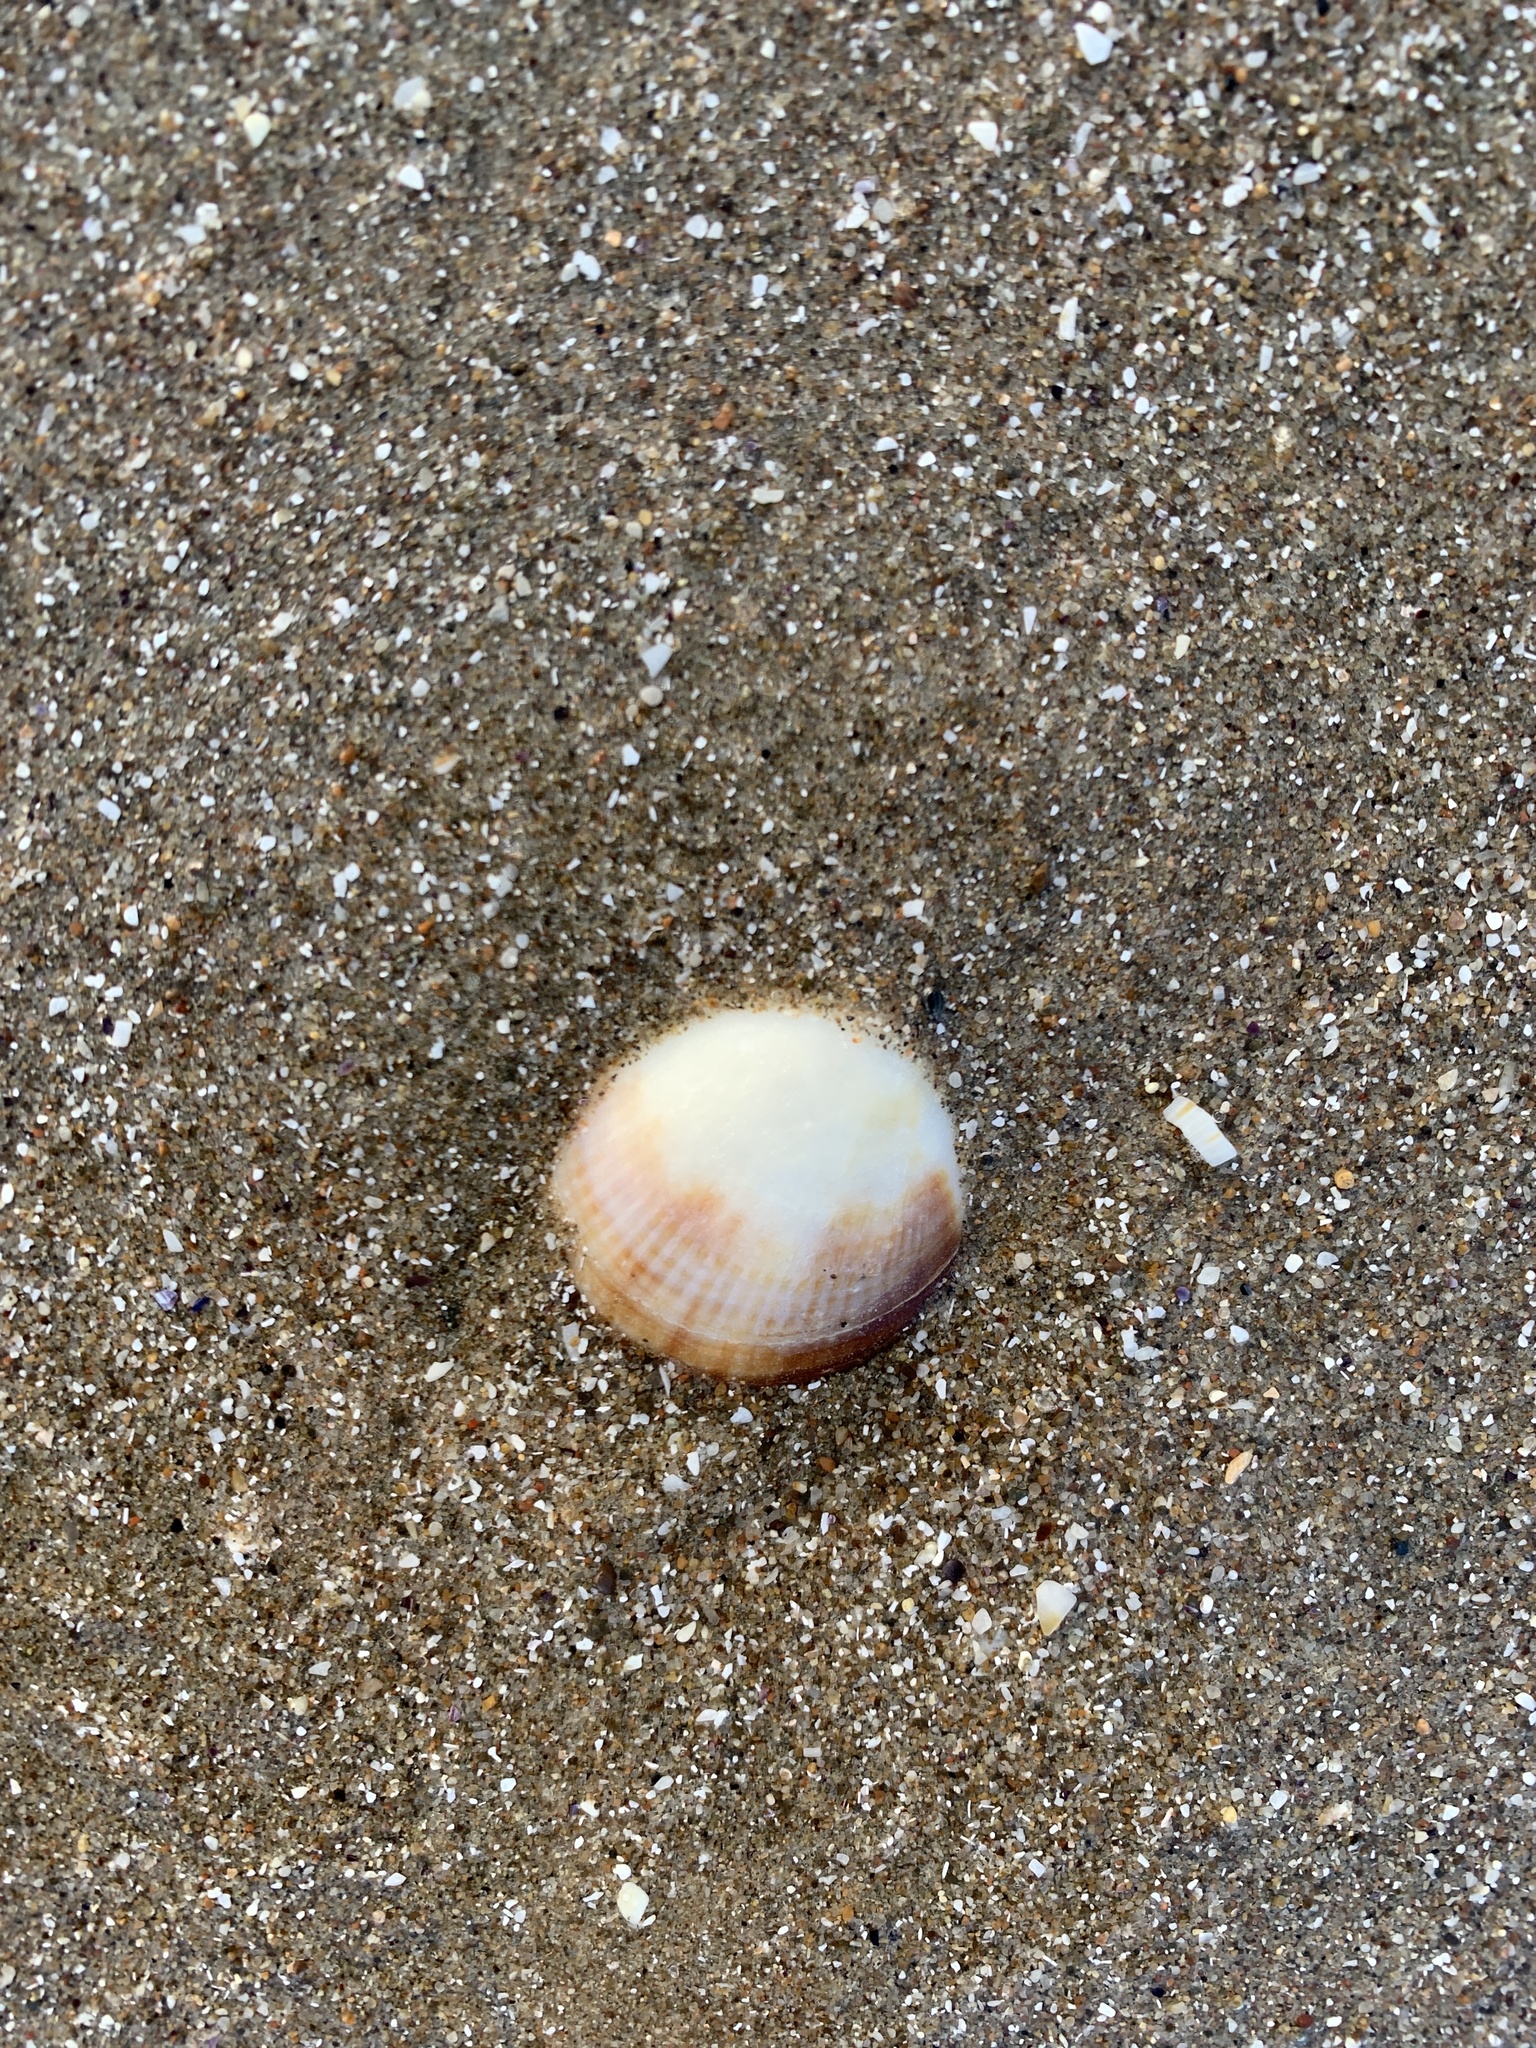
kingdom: Animalia
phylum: Mollusca
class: Bivalvia
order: Arcida
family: Glycymerididae
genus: Glycymeris
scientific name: Glycymeris longior
